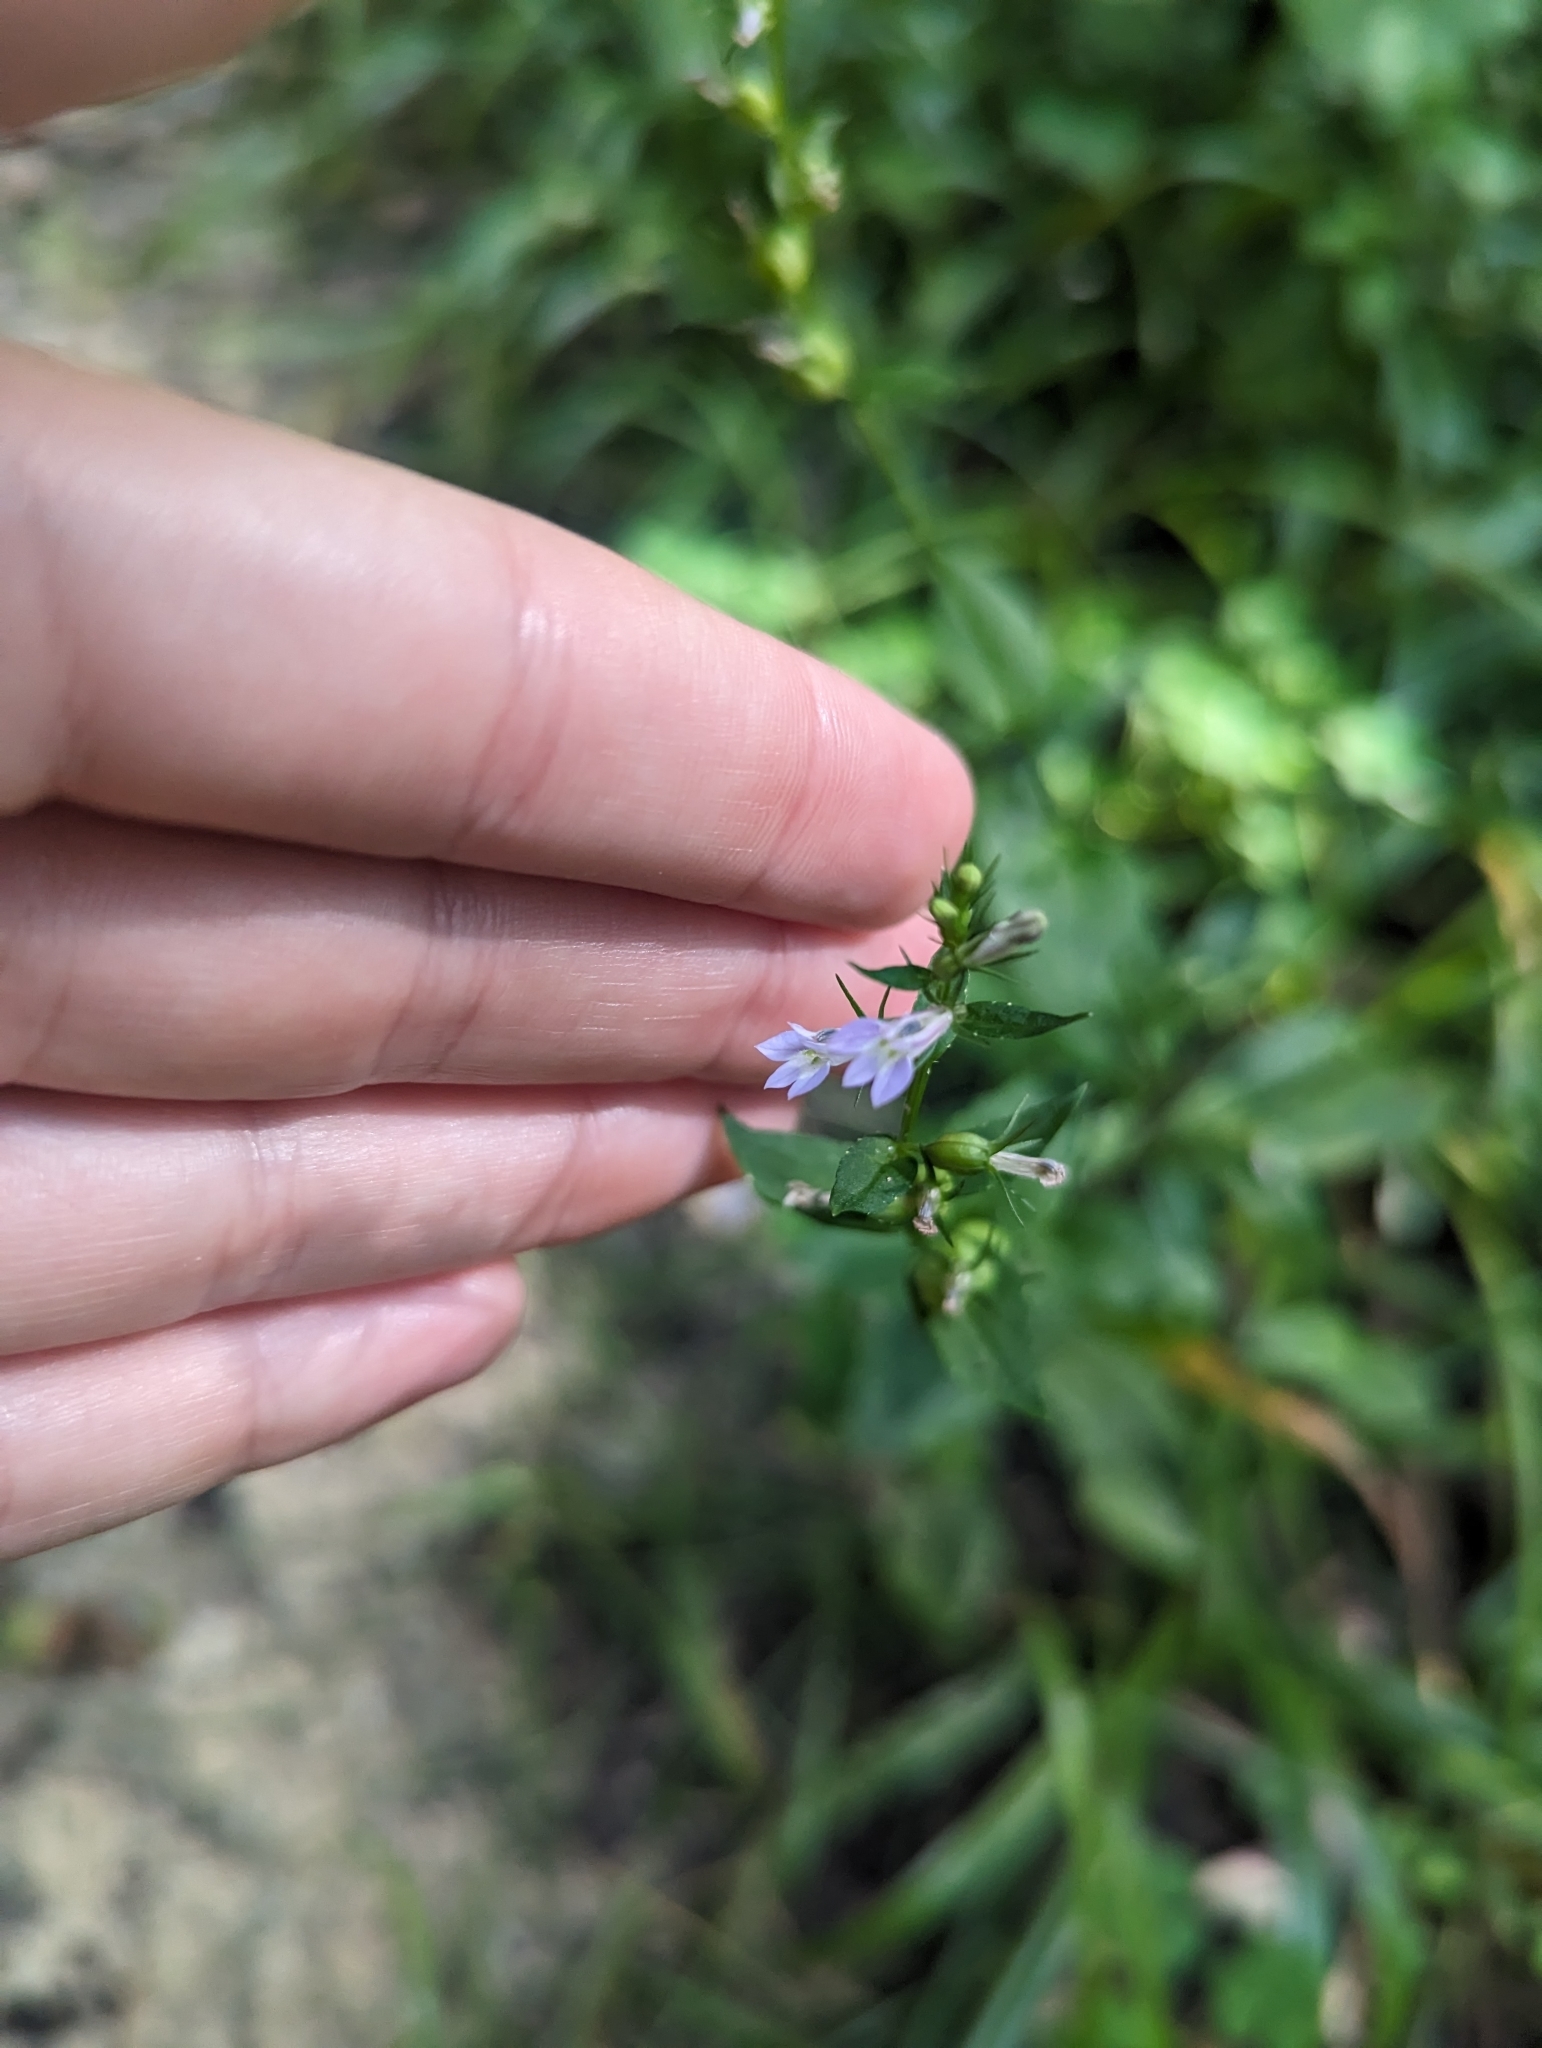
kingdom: Plantae
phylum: Tracheophyta
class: Magnoliopsida
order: Asterales
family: Campanulaceae
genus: Lobelia
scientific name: Lobelia inflata
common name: Indian tobacco
